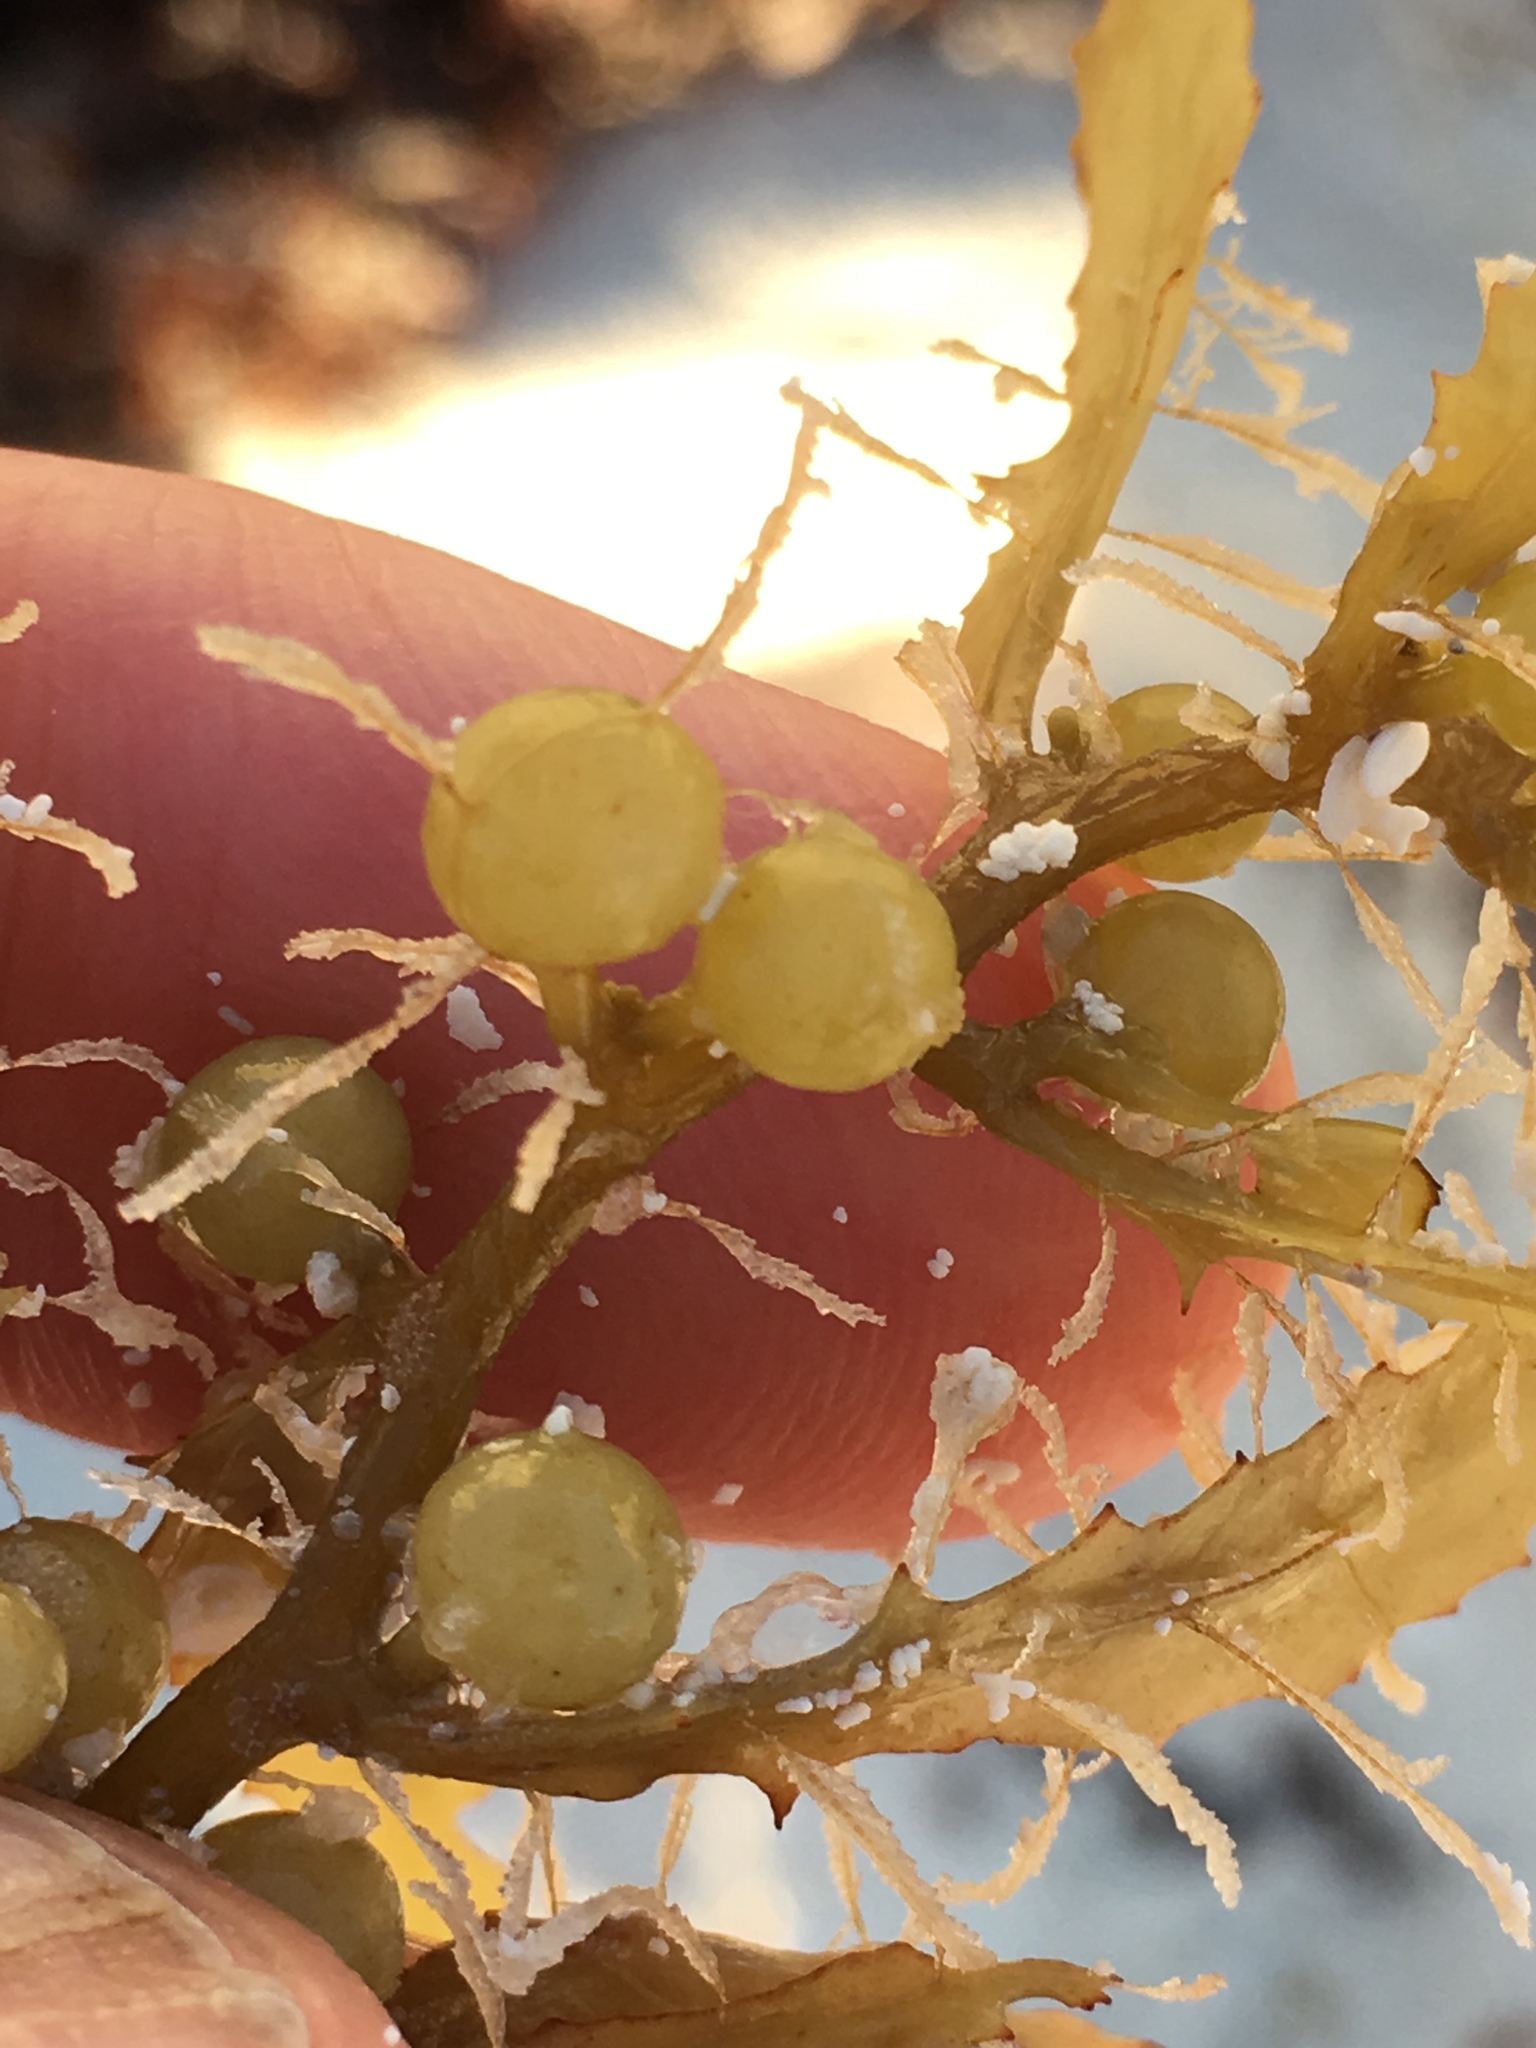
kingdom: Chromista
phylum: Ochrophyta
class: Phaeophyceae
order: Fucales
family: Sargassaceae
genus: Sargassum
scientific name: Sargassum natans
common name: Sargasso weed
